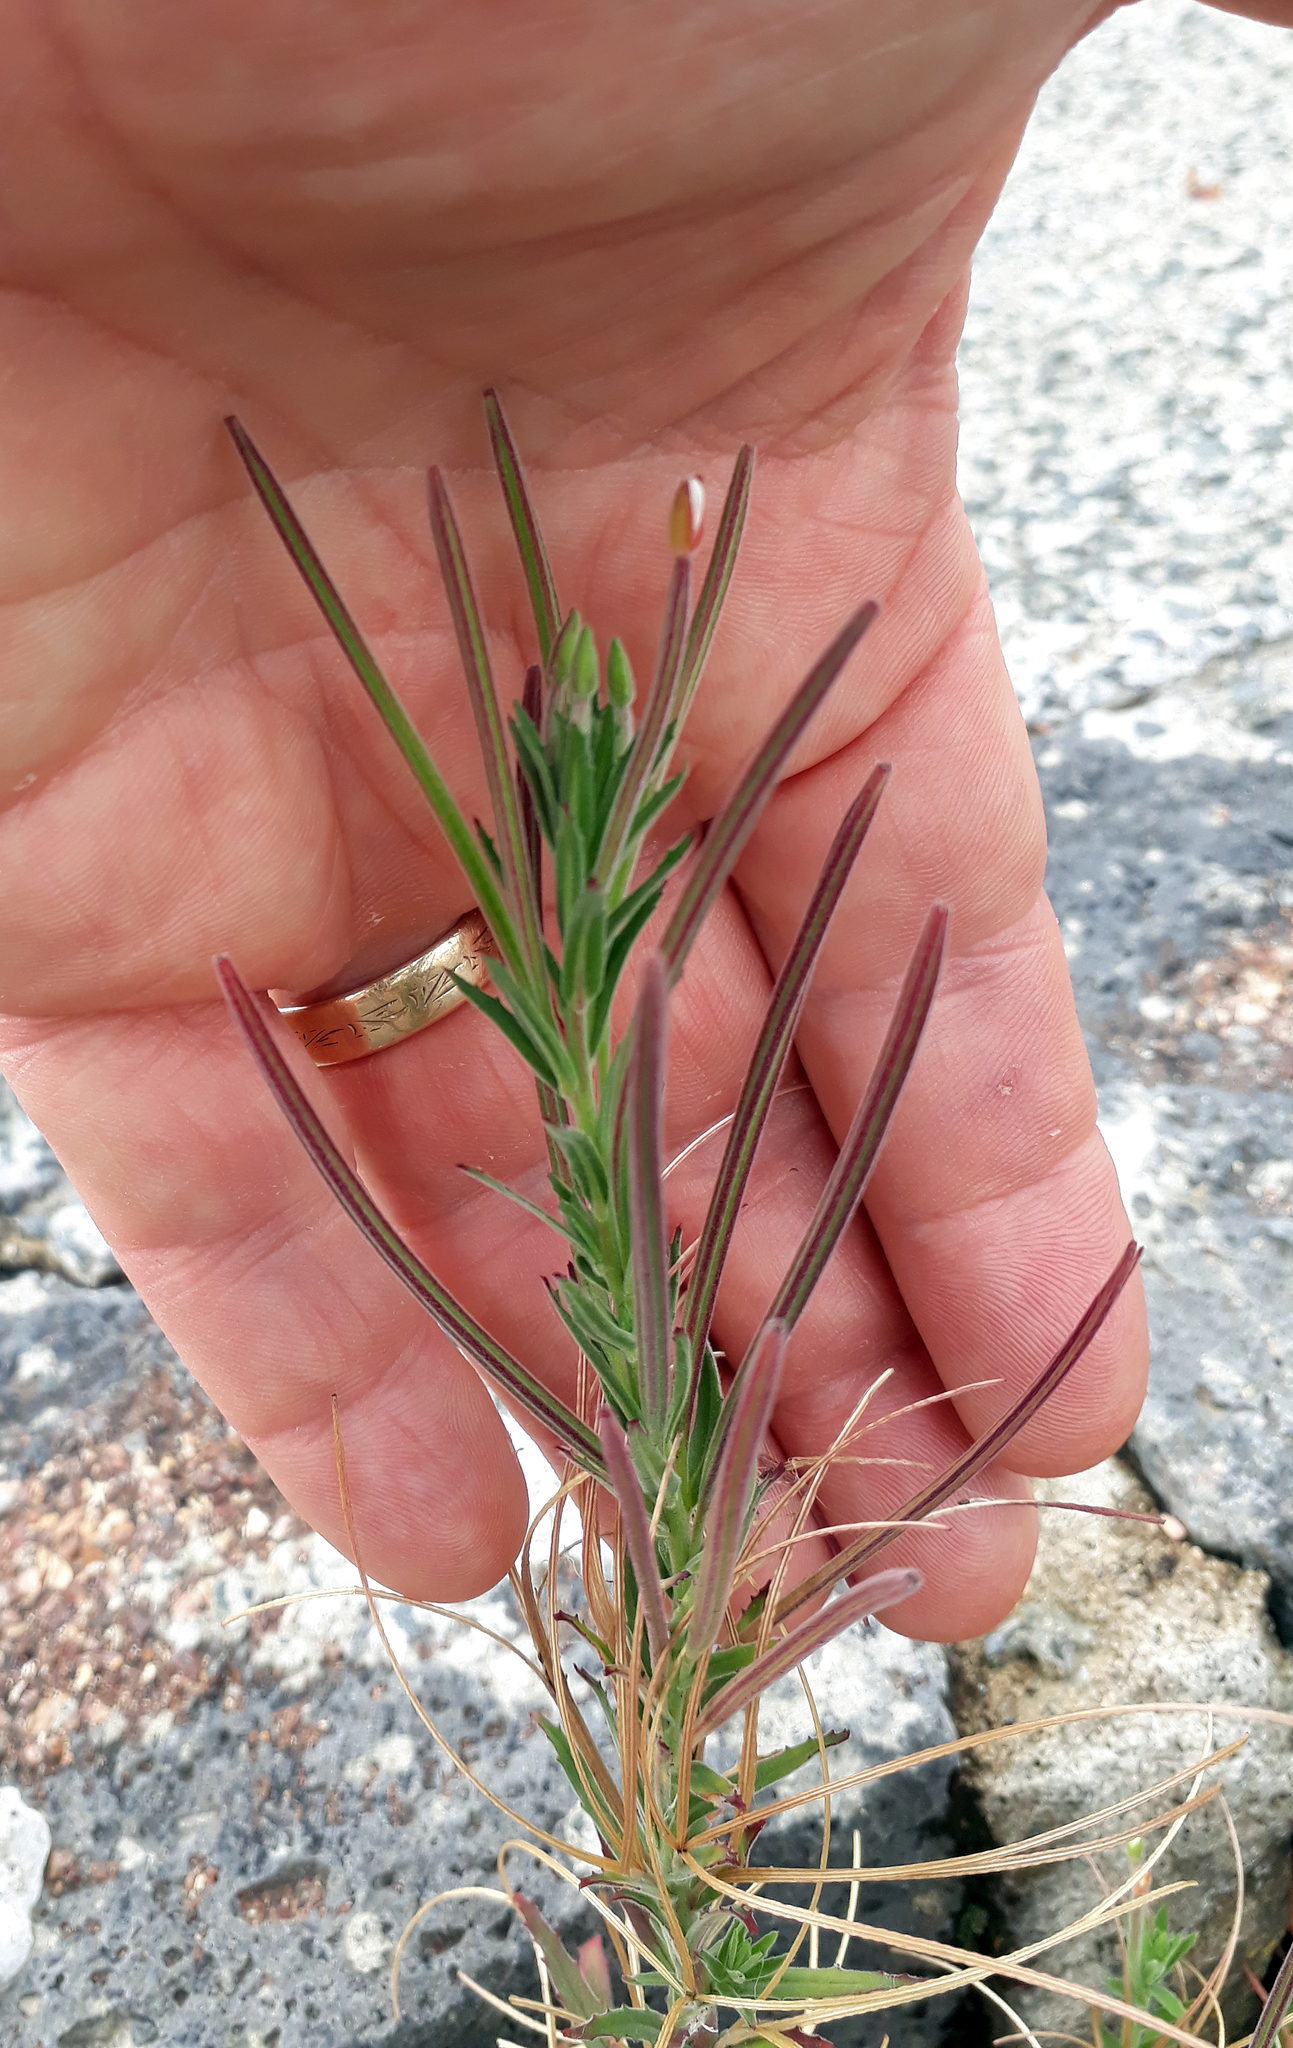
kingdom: Plantae
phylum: Tracheophyta
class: Magnoliopsida
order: Myrtales
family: Onagraceae
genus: Epilobium
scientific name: Epilobium hirtigerum
